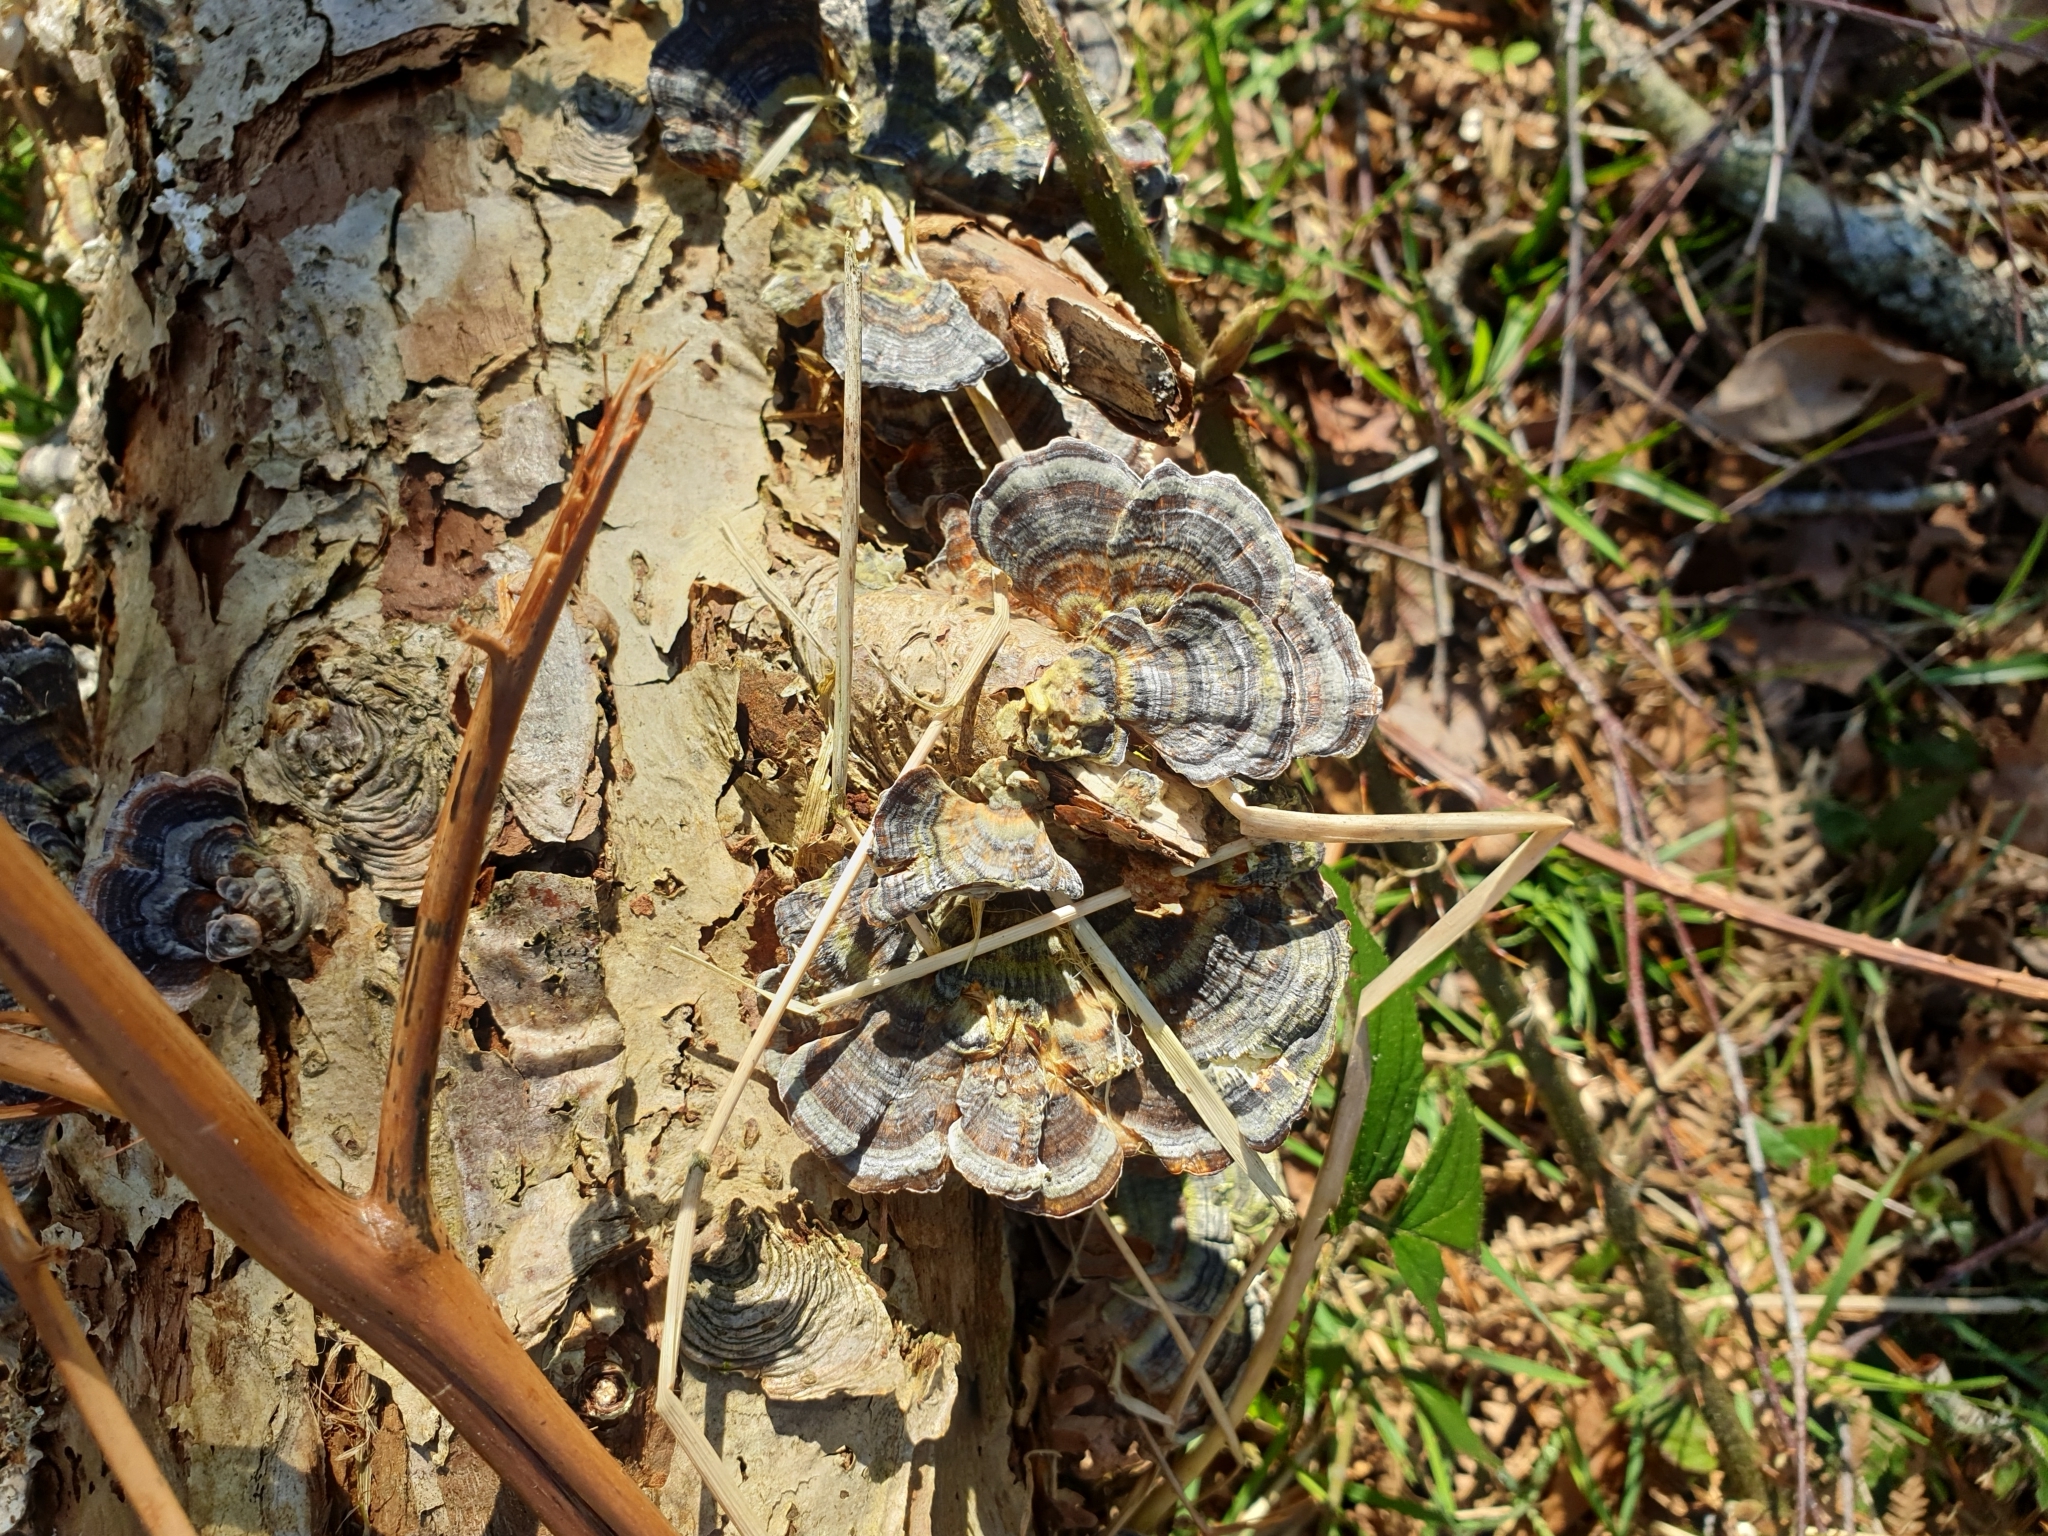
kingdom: Fungi
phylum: Basidiomycota
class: Agaricomycetes
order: Polyporales
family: Polyporaceae
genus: Trametes
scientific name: Trametes versicolor
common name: Turkeytail
